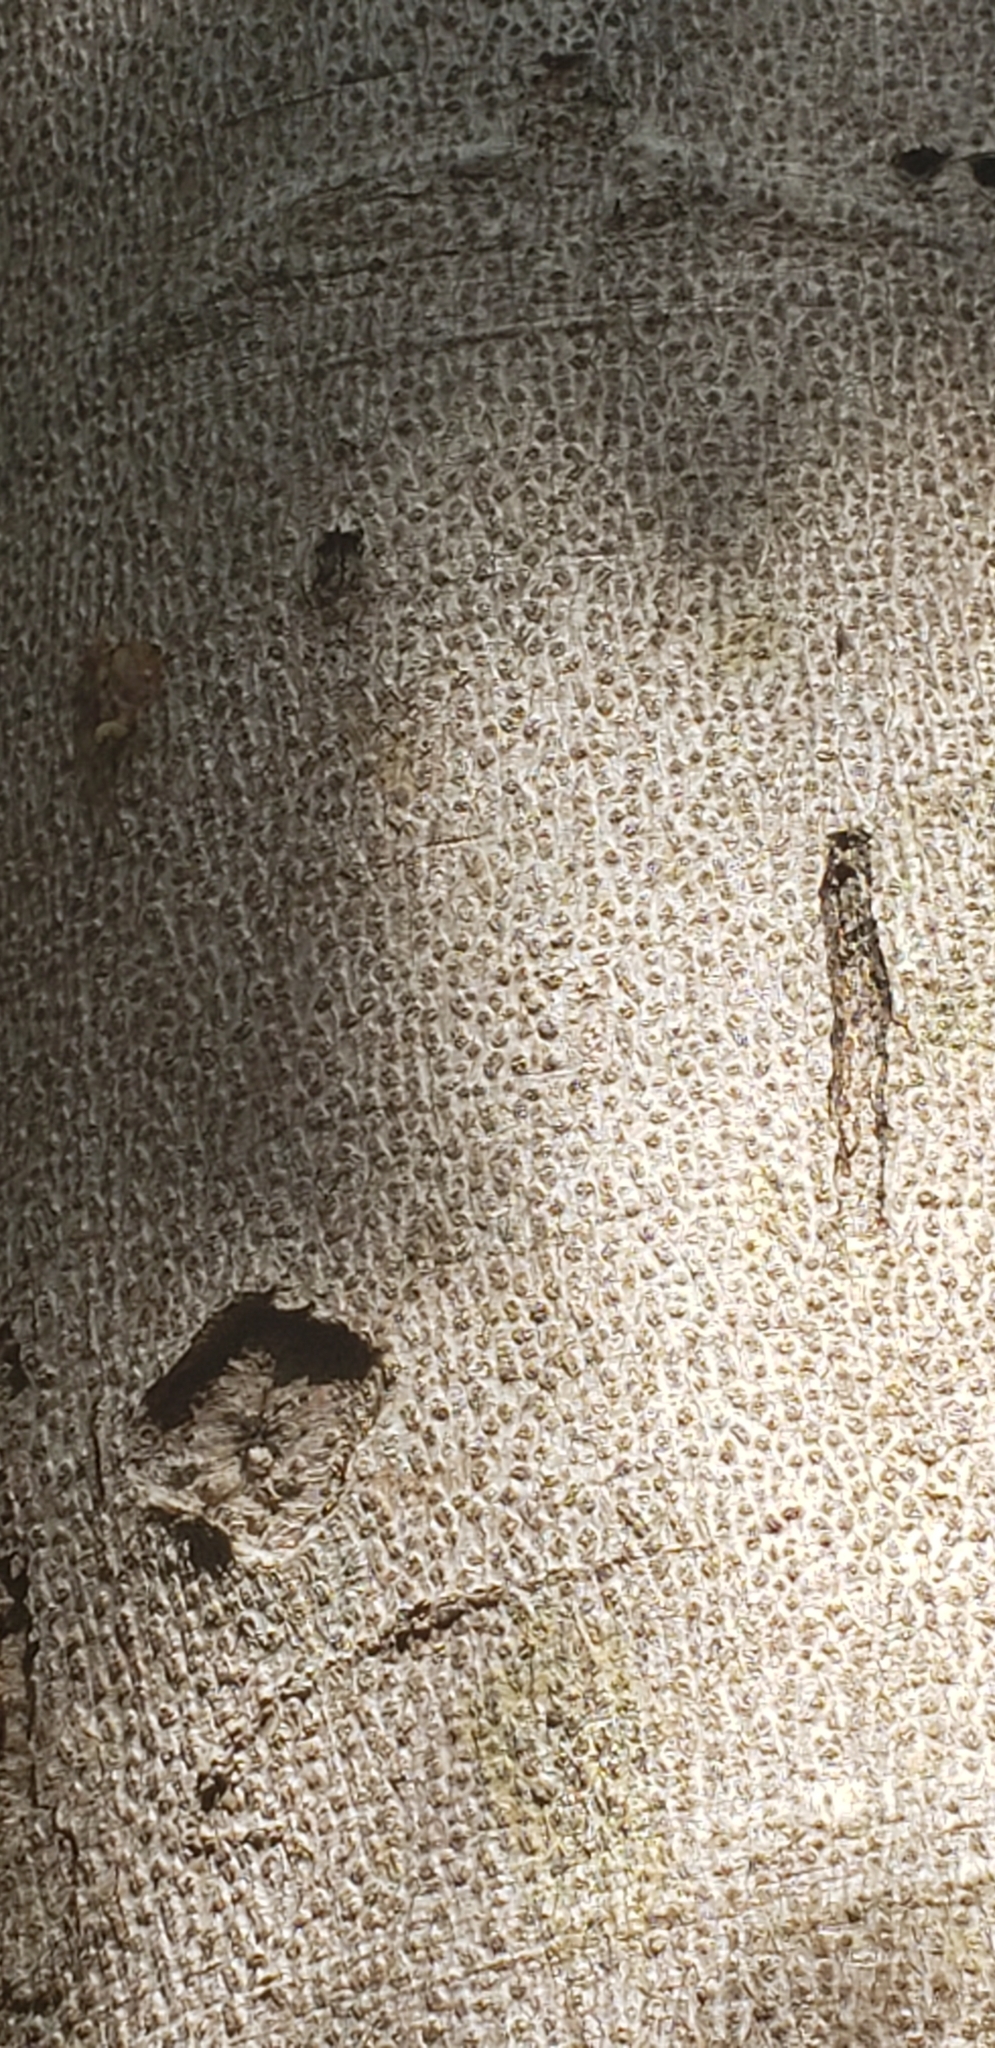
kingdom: Plantae
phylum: Tracheophyta
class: Magnoliopsida
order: Fabales
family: Fabaceae
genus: Hymenaea
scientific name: Hymenaea courbaril
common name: Brazilian copal
